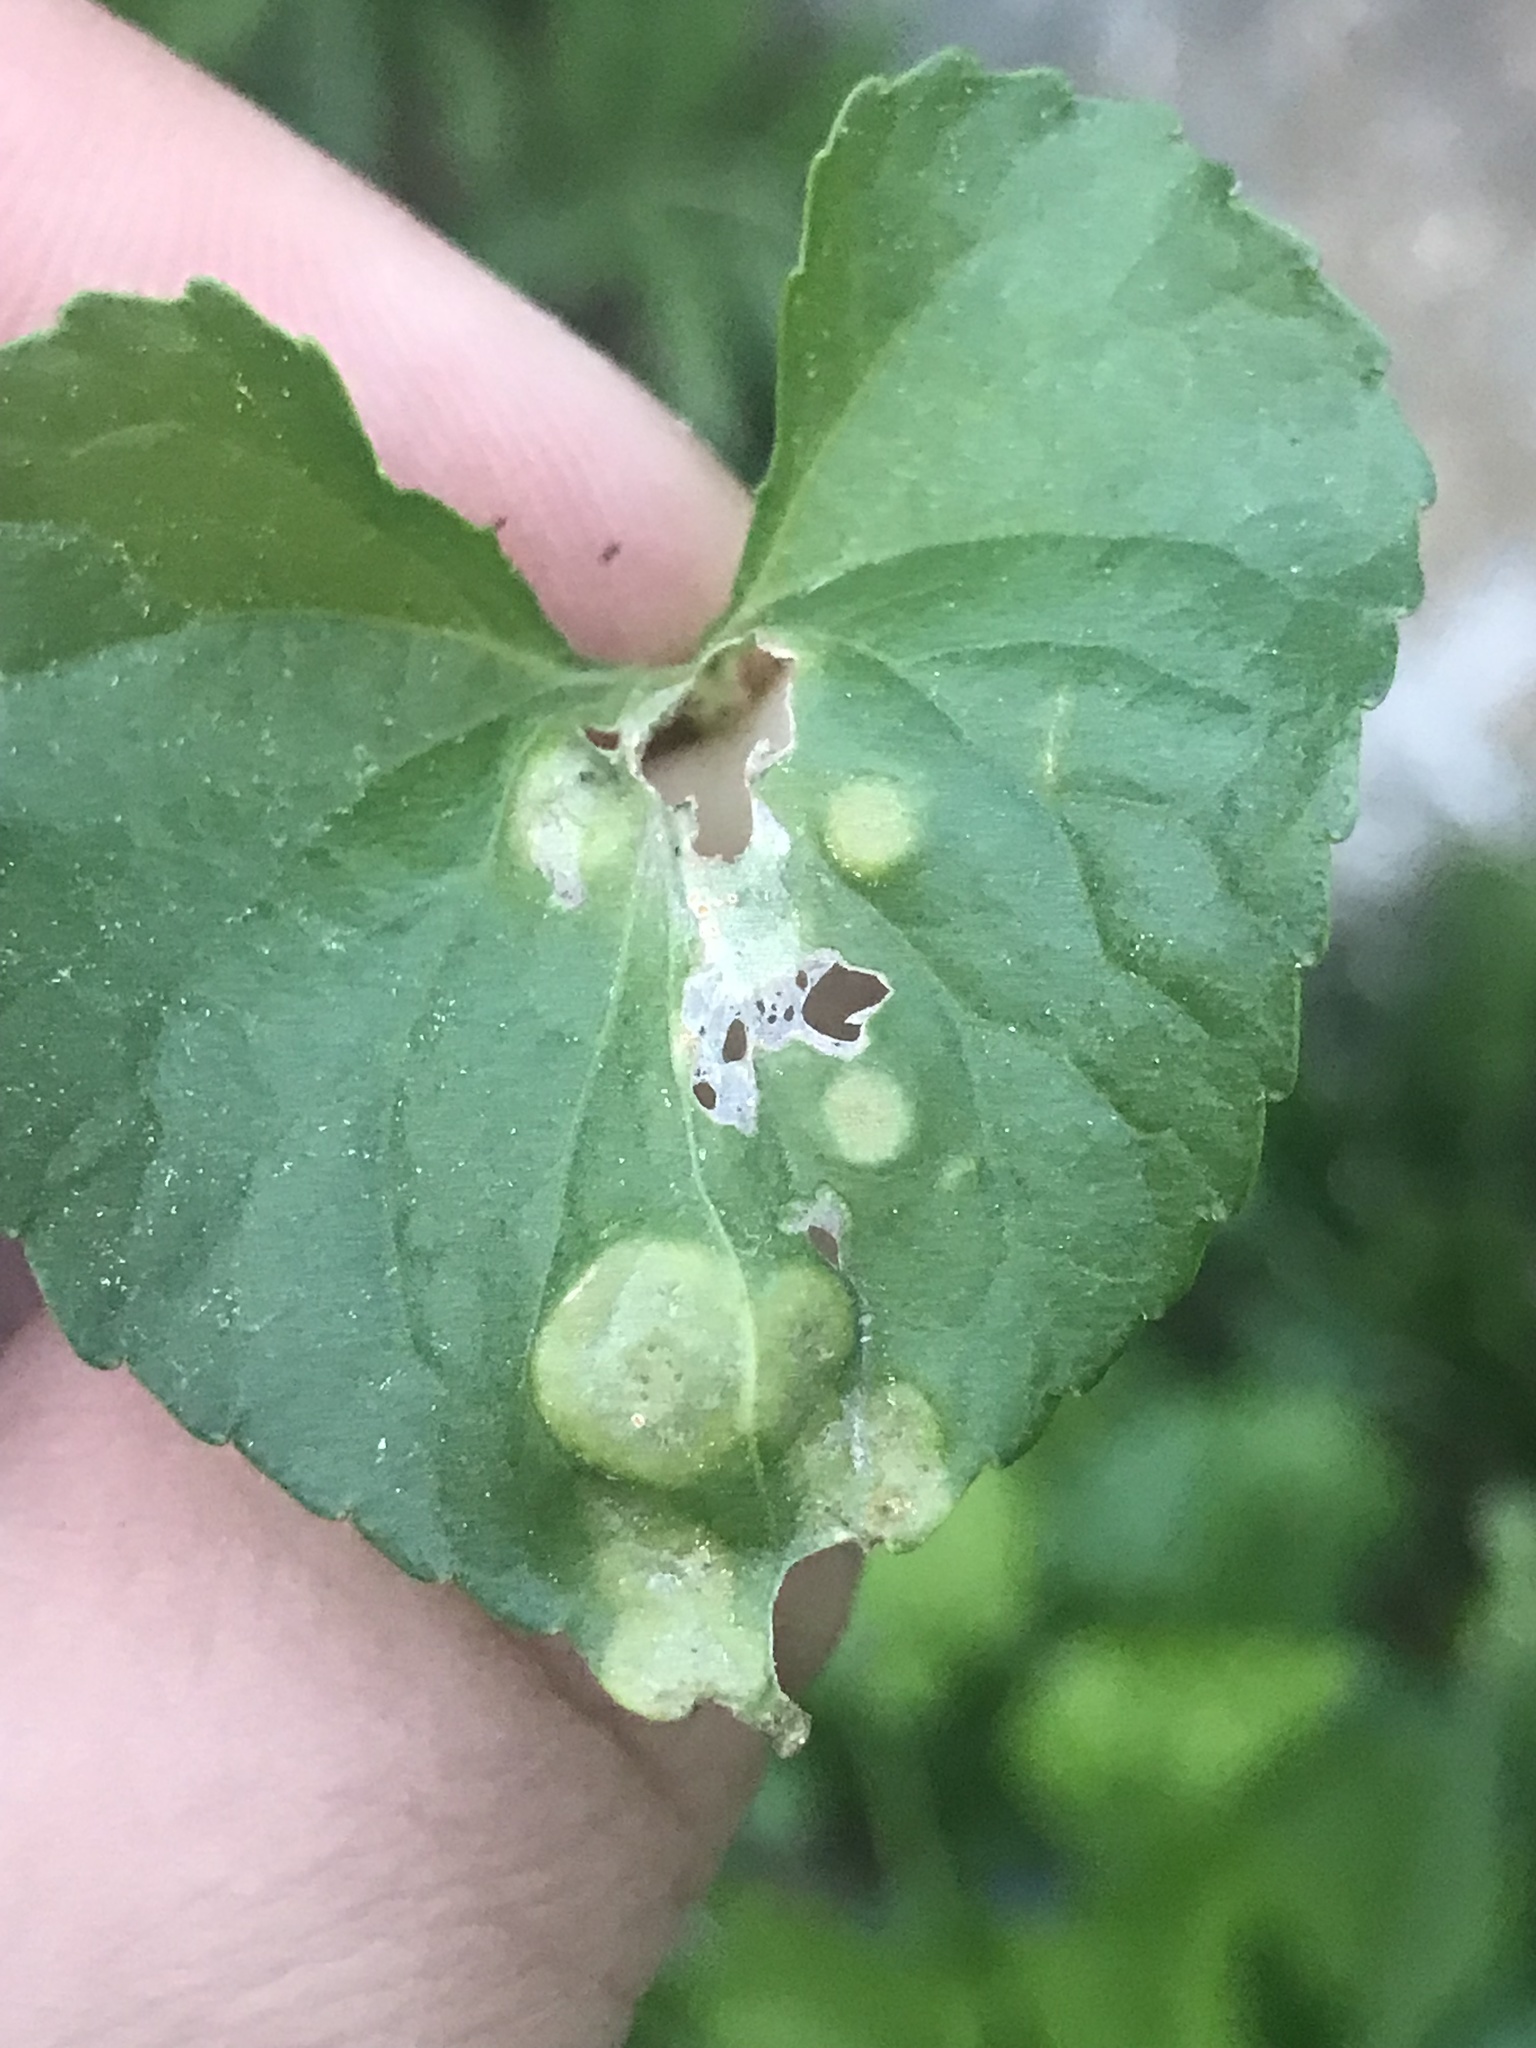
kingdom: Fungi
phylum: Basidiomycota
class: Pucciniomycetes
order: Pucciniales
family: Pucciniaceae
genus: Puccinia
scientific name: Puccinia violae
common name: Violet rust
